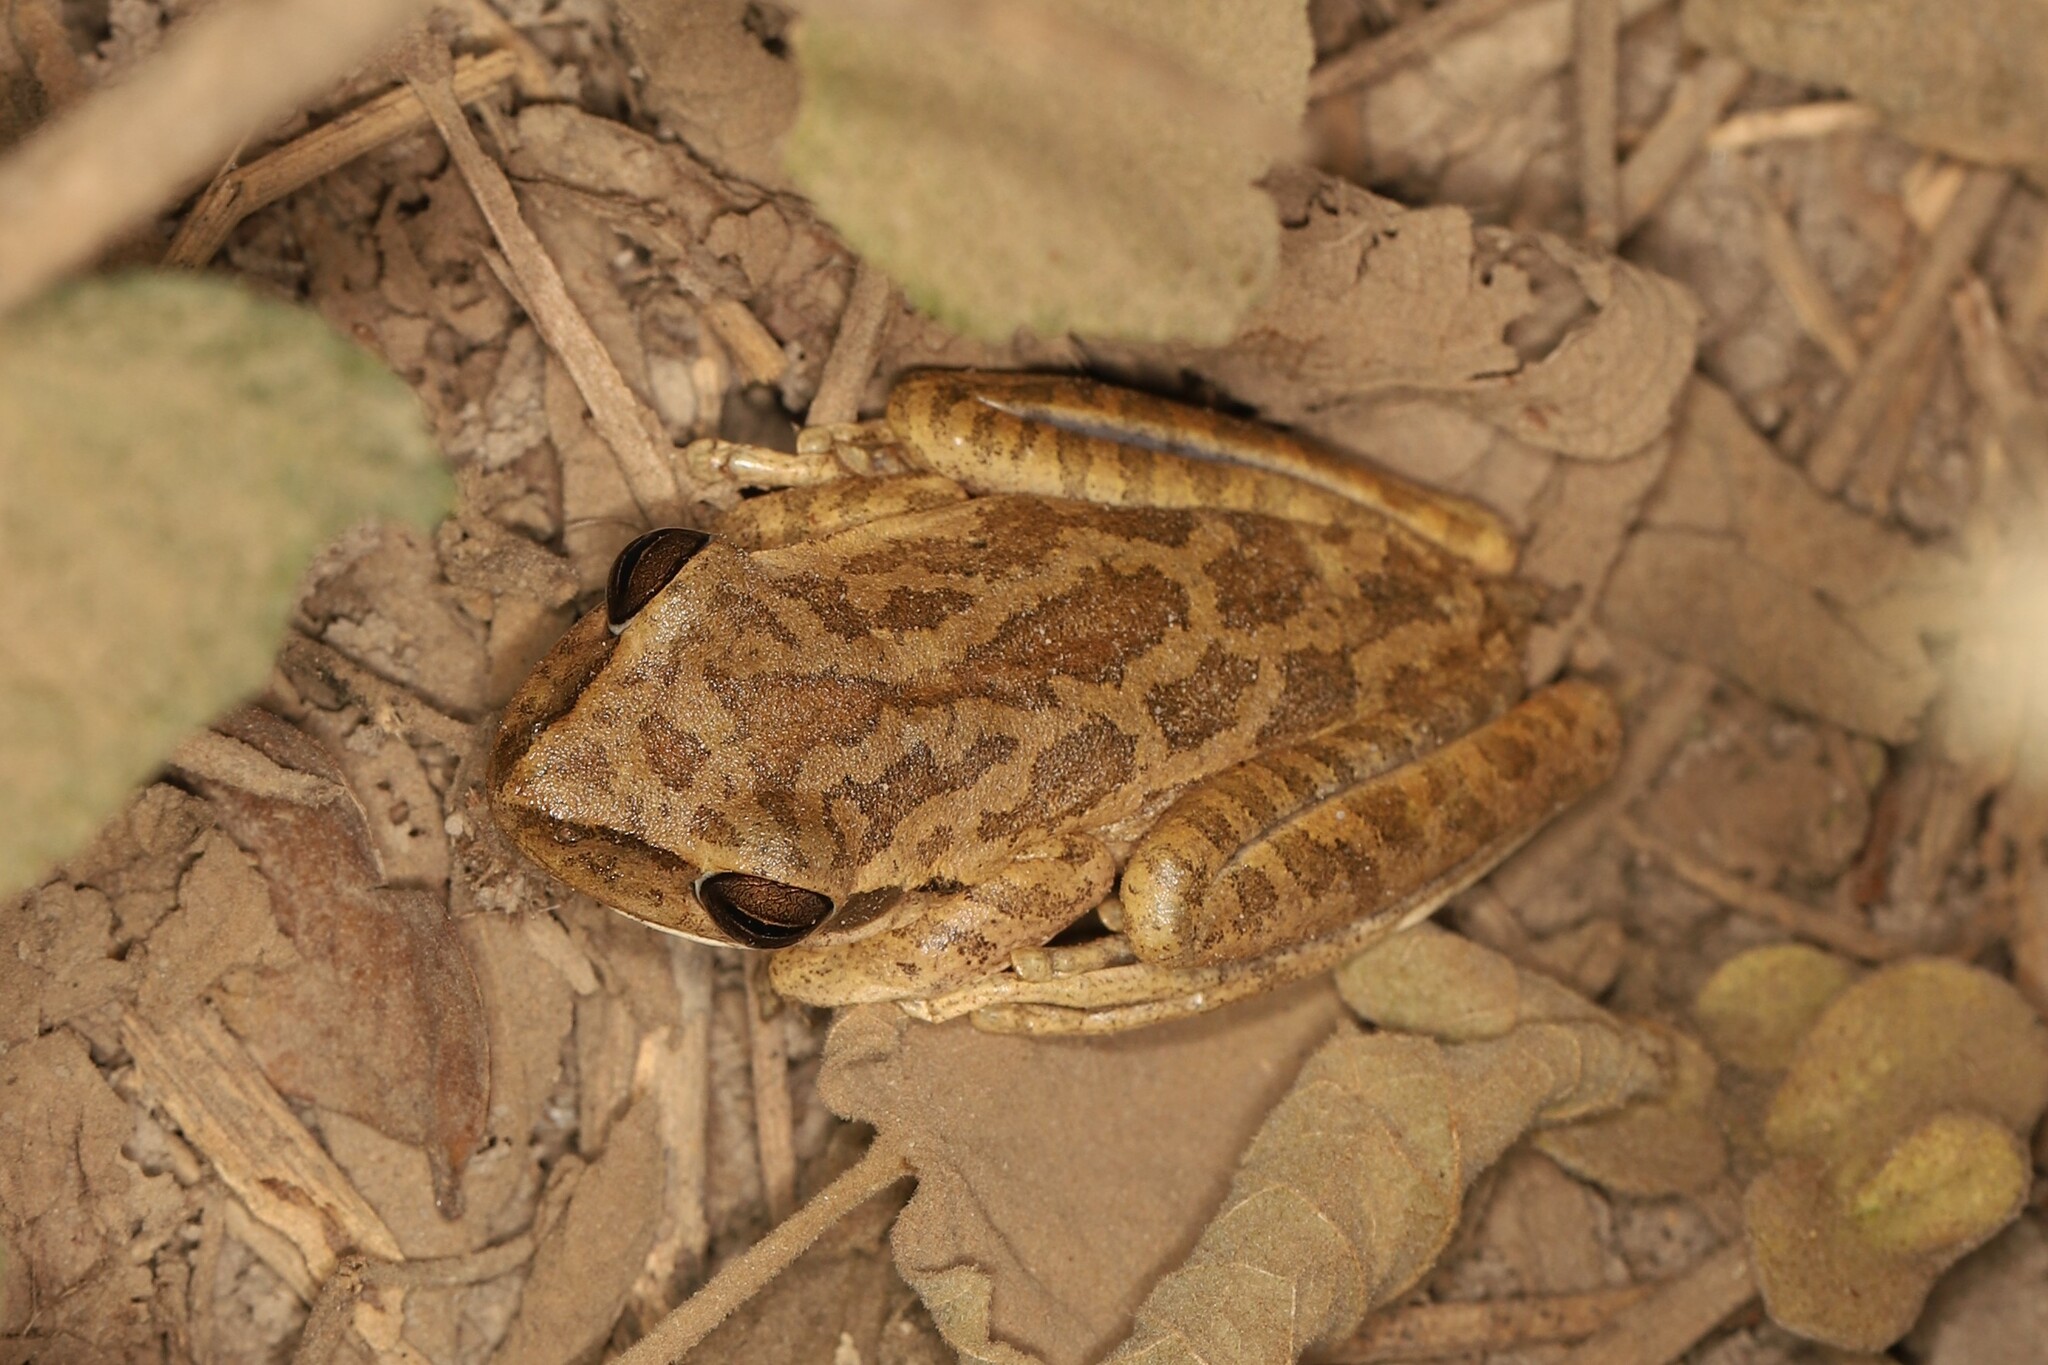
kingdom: Animalia
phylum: Chordata
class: Amphibia
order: Anura
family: Hylidae
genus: Boana
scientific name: Boana raniceps
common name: Chaco treefrog
